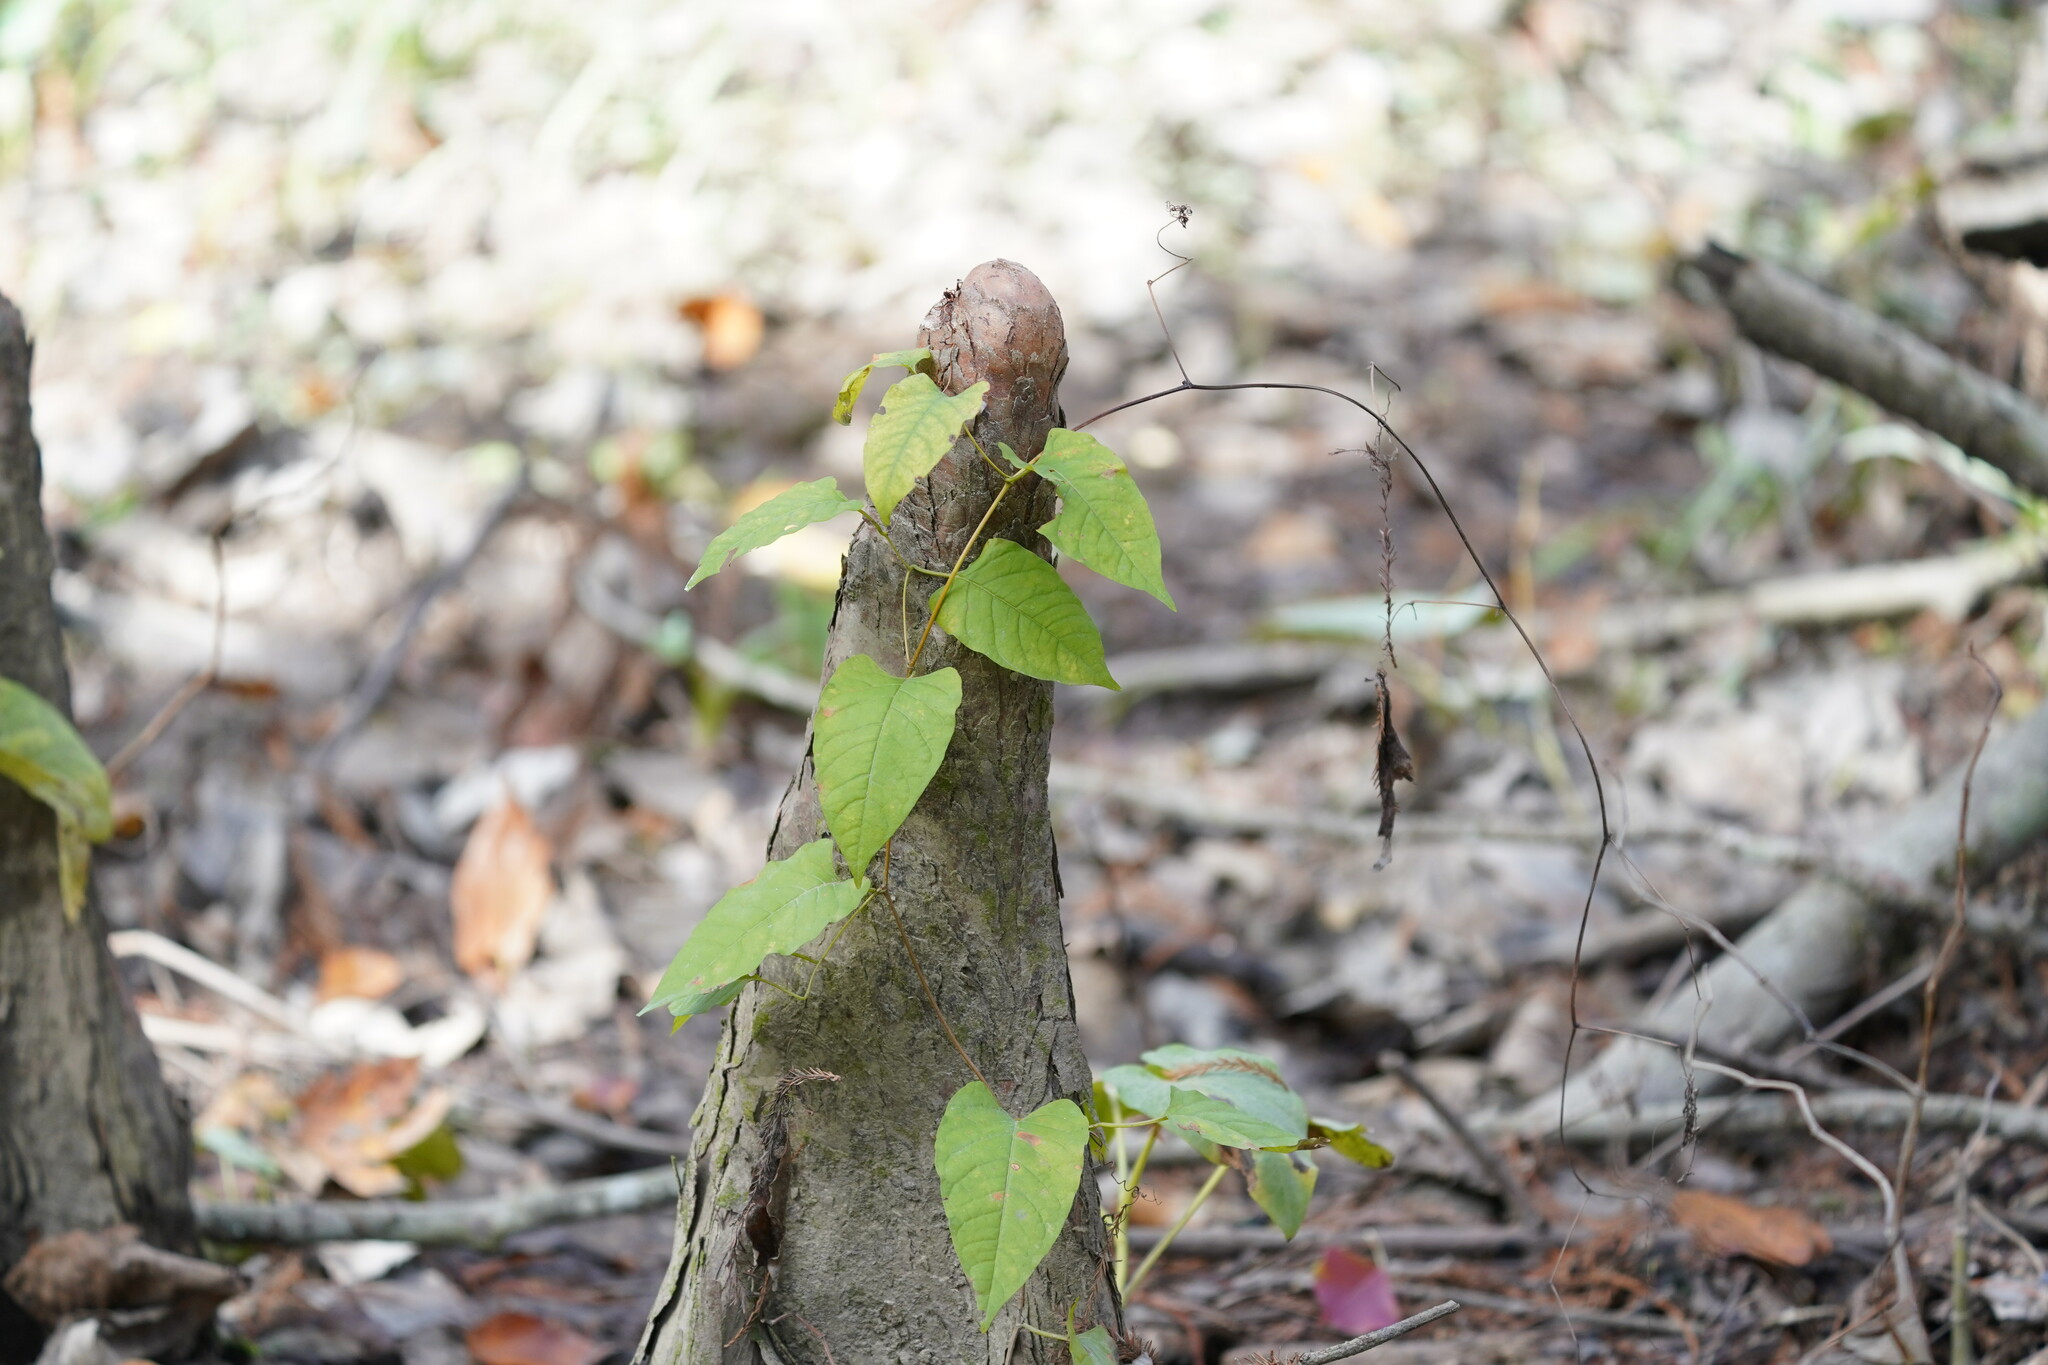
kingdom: Plantae
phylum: Tracheophyta
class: Magnoliopsida
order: Caryophyllales
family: Polygonaceae
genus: Brunnichia
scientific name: Brunnichia ovata
